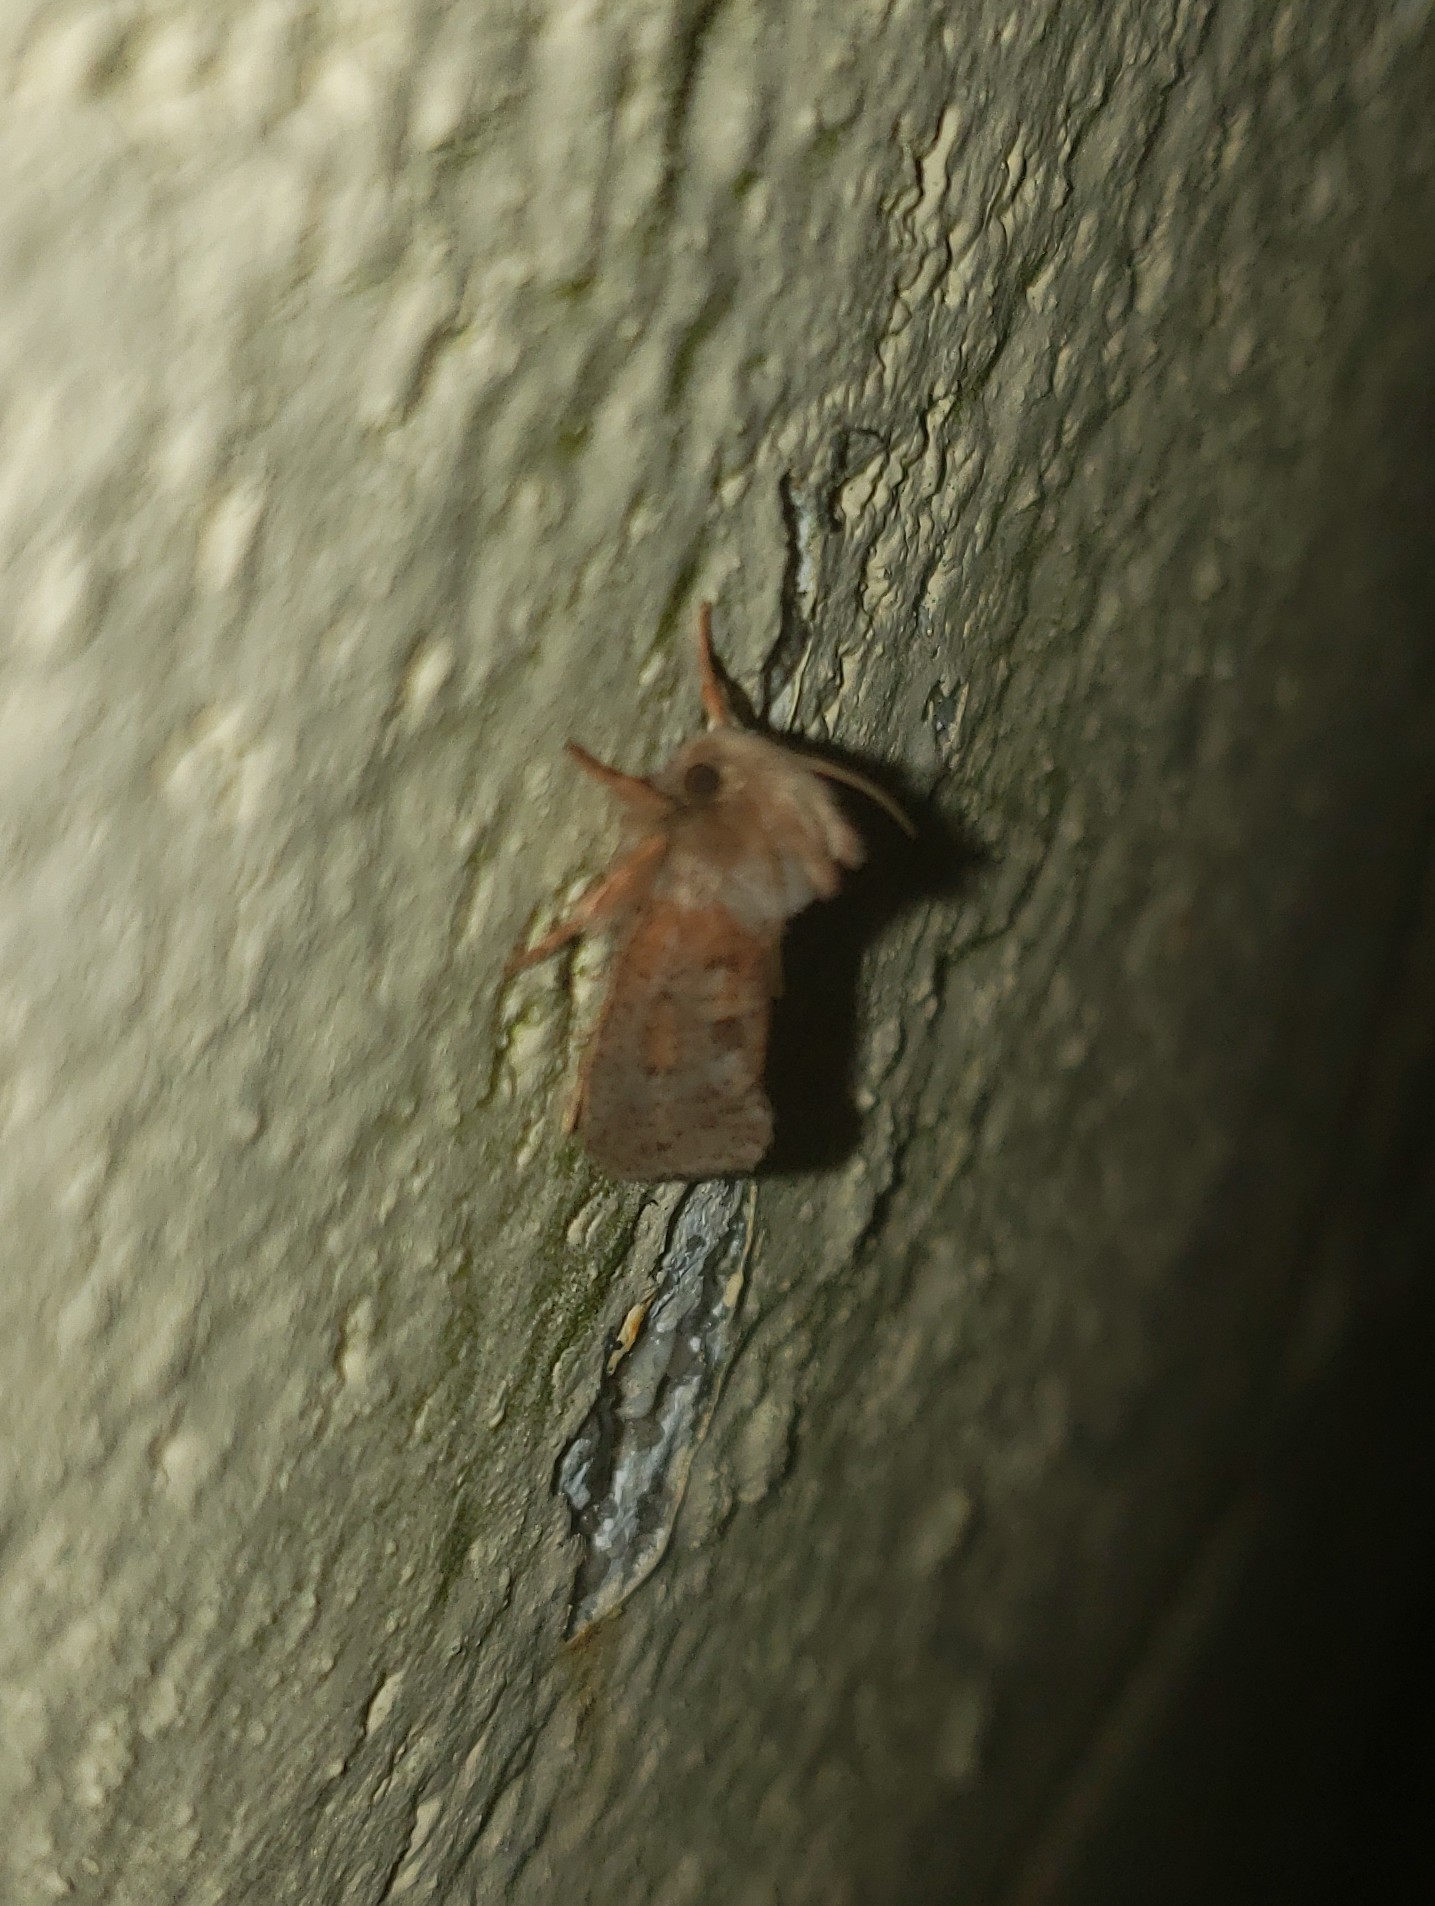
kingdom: Animalia
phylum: Arthropoda
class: Insecta
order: Lepidoptera
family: Tineidae
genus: Acrolophus
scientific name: Acrolophus plumifrontella
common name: Eastern grass tubeworm moth
